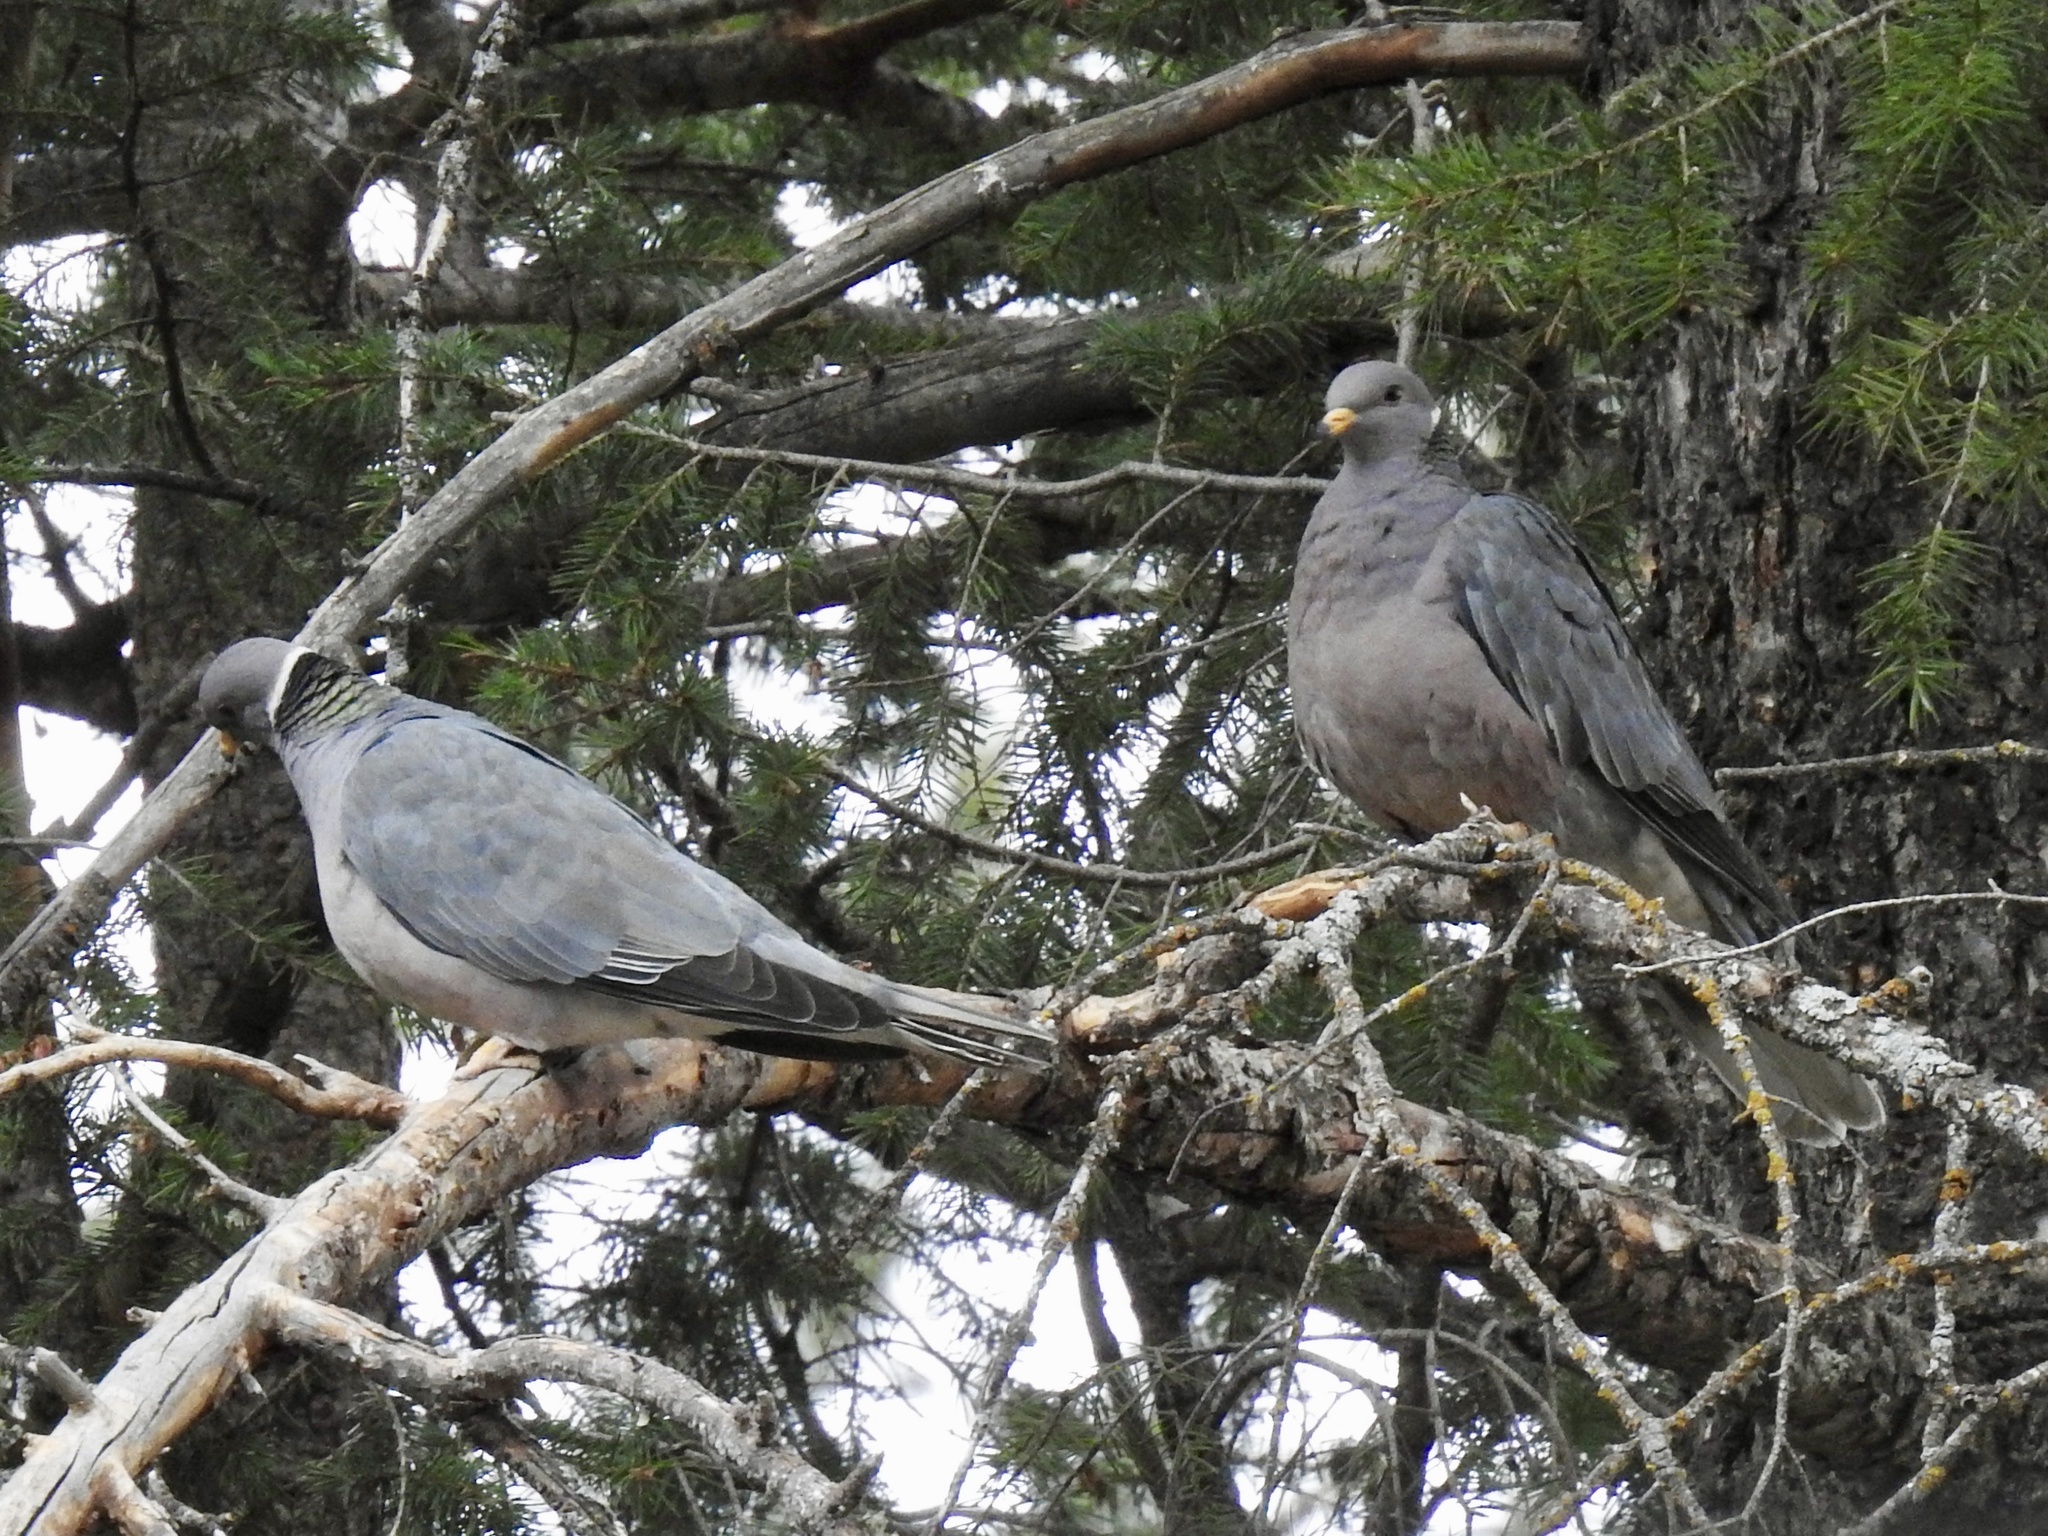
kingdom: Animalia
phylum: Chordata
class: Aves
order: Columbiformes
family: Columbidae
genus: Patagioenas
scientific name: Patagioenas fasciata
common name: Band-tailed pigeon
